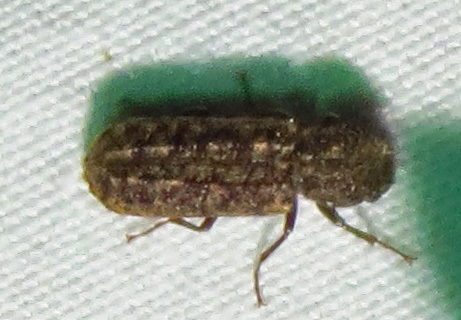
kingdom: Animalia
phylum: Arthropoda
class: Insecta
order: Coleoptera
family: Bostrichidae
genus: Lichenophanes
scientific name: Lichenophanes bicornis
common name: Two-horned powder-post beetle
